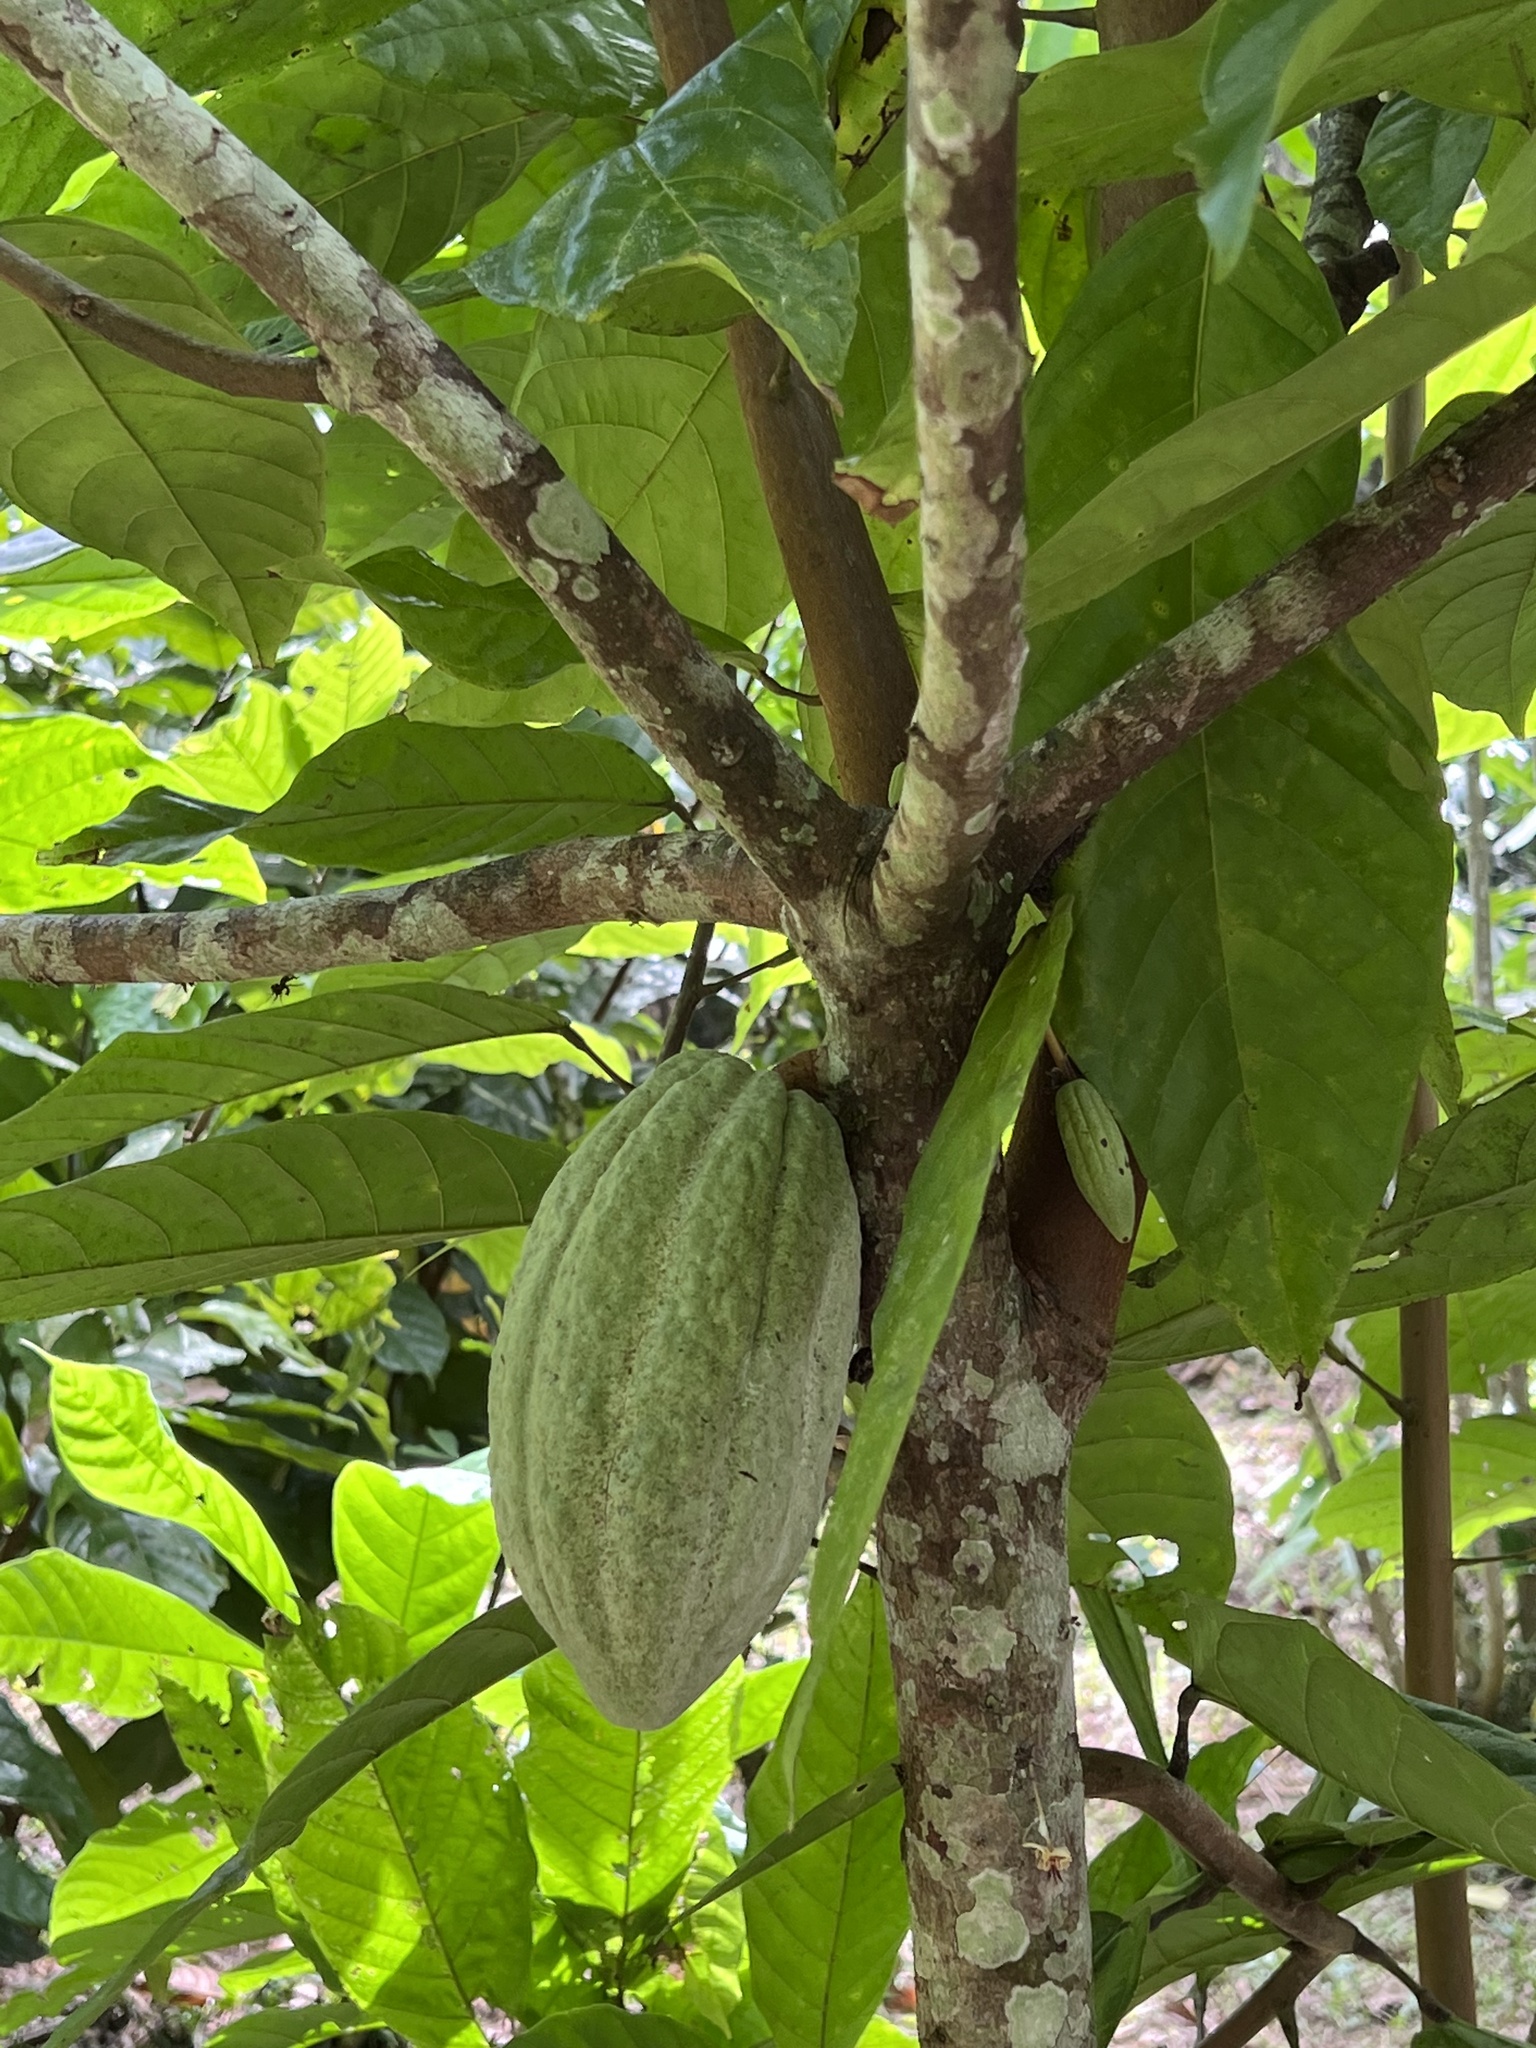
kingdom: Plantae
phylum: Tracheophyta
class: Magnoliopsida
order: Malvales
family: Malvaceae
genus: Theobroma
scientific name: Theobroma cacao
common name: Cocoa
